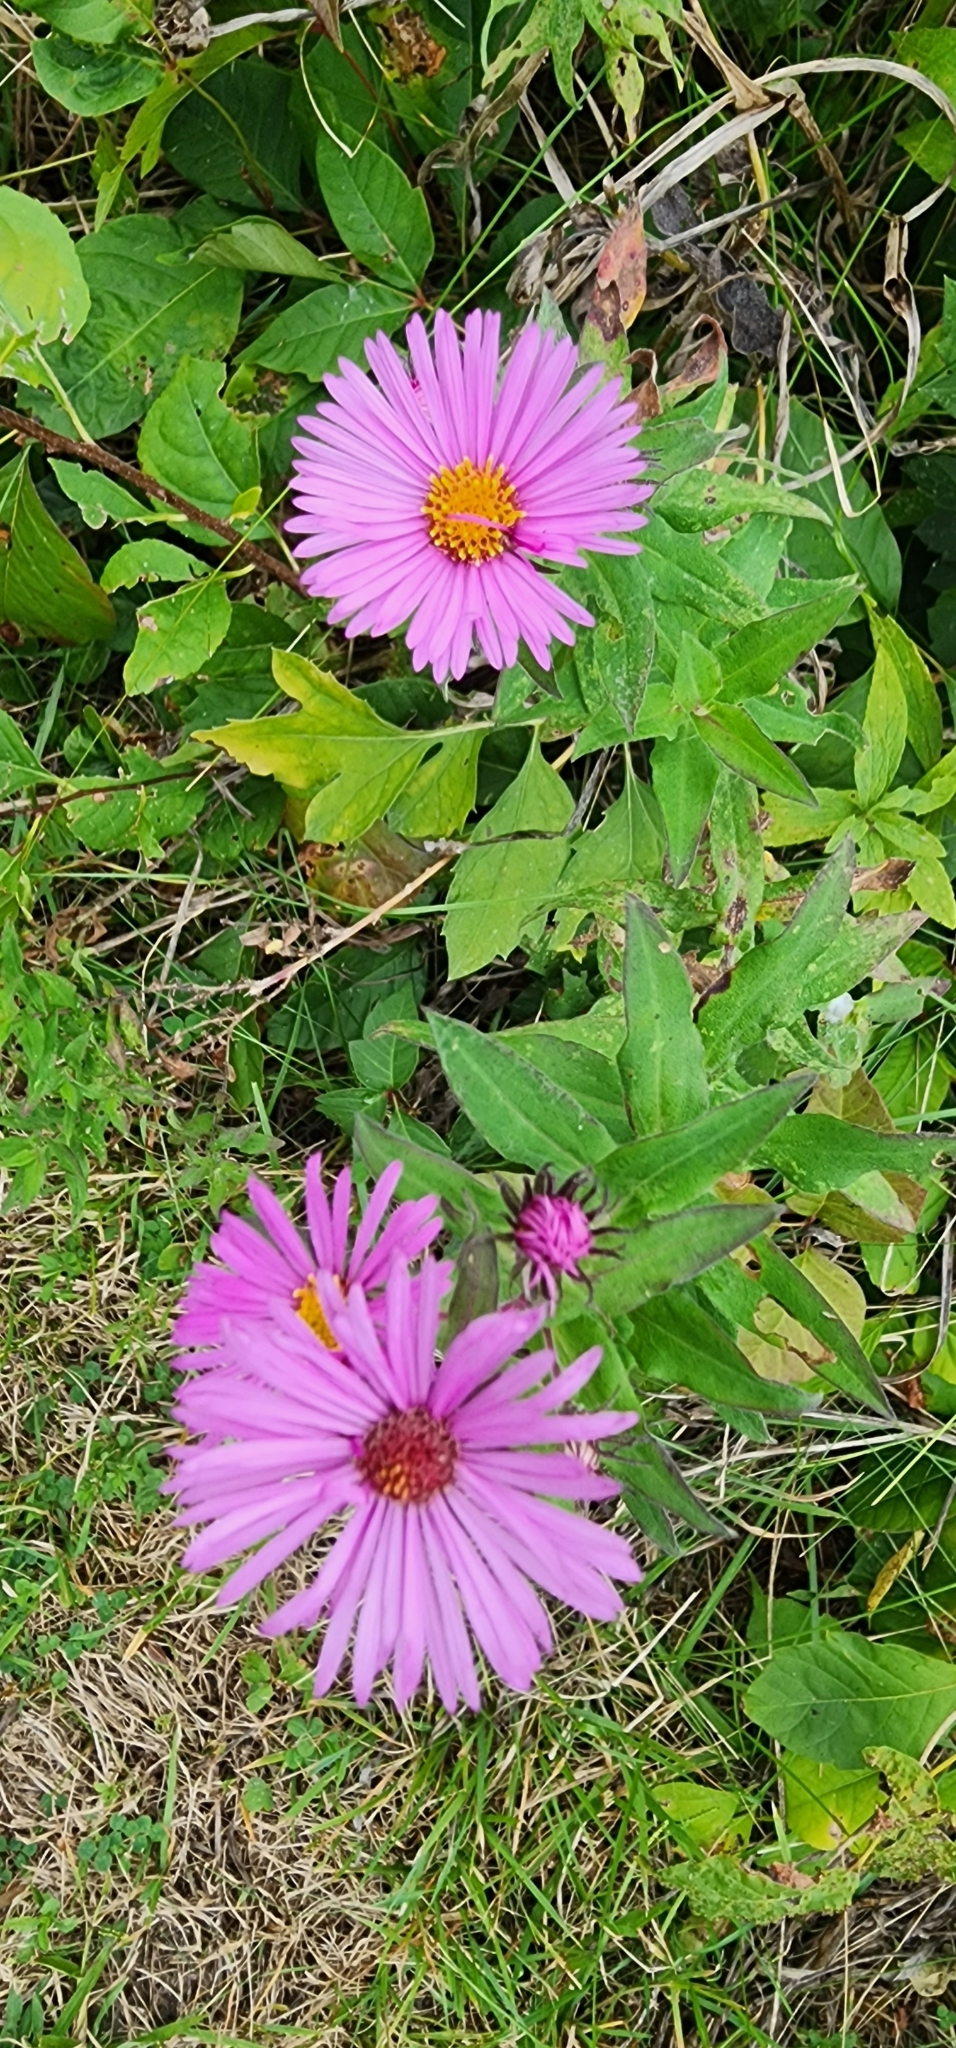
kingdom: Plantae
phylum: Tracheophyta
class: Magnoliopsida
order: Asterales
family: Asteraceae
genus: Symphyotrichum
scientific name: Symphyotrichum novae-angliae
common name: Michaelmas daisy
